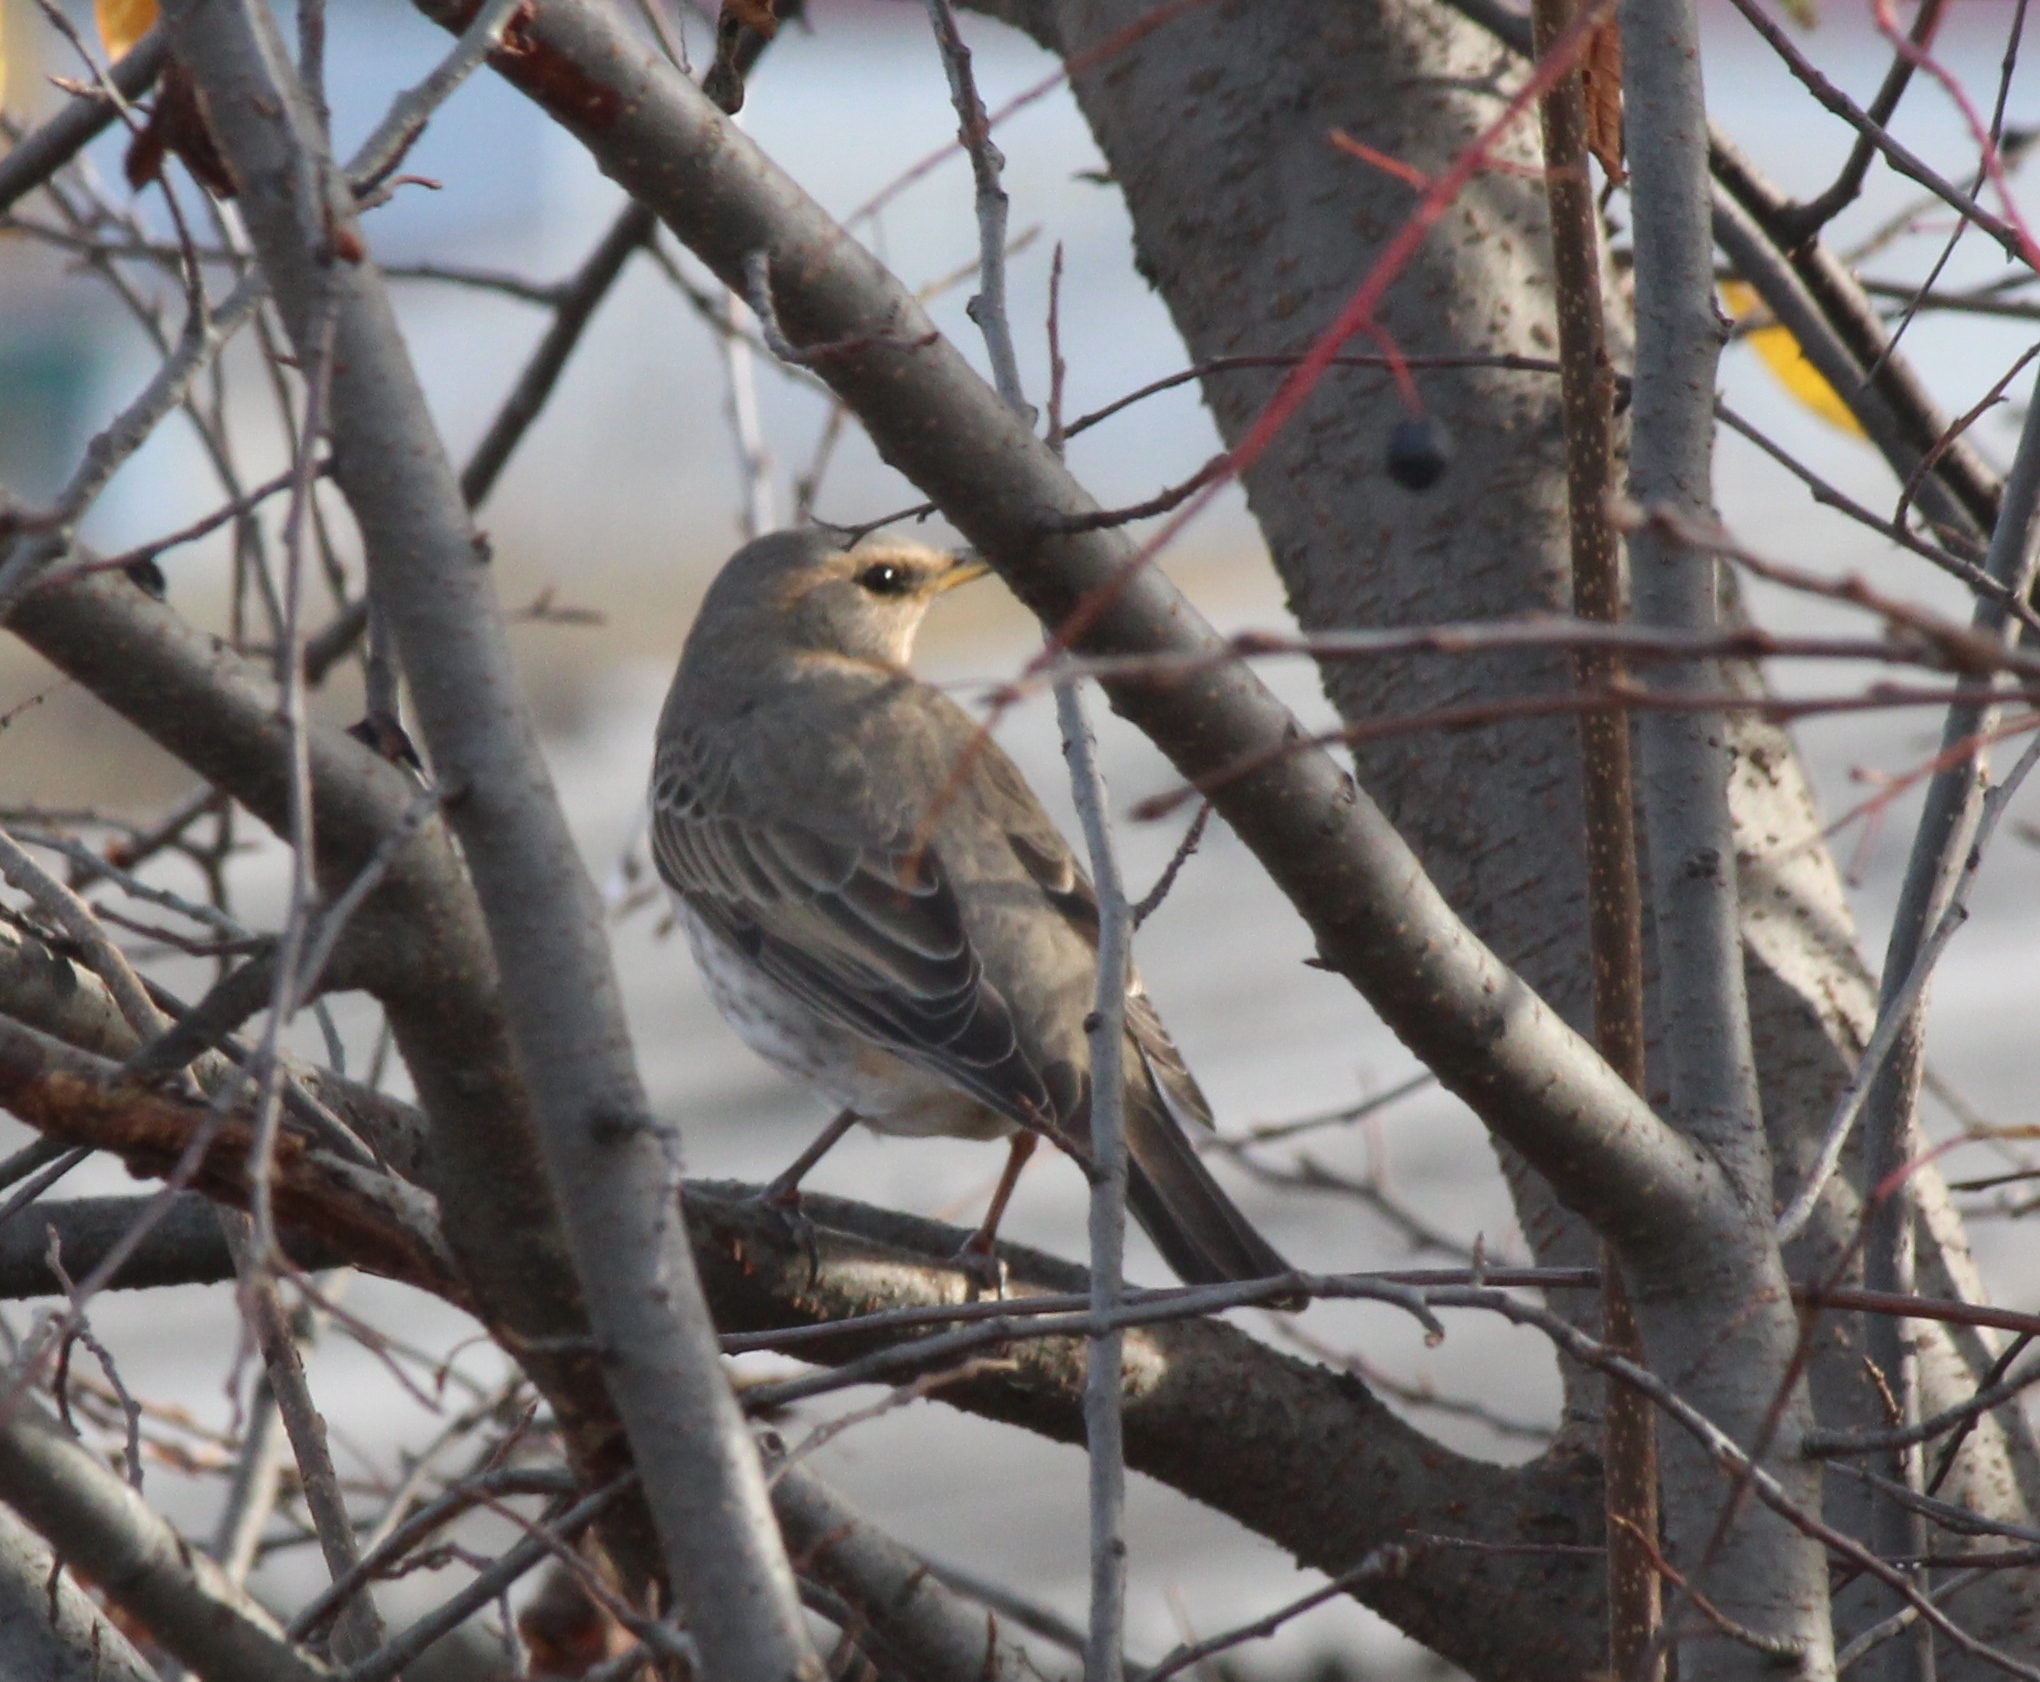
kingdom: Animalia
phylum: Chordata
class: Aves
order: Passeriformes
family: Turdidae
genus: Turdus
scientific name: Turdus ruficollis
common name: Red-throated thrush
